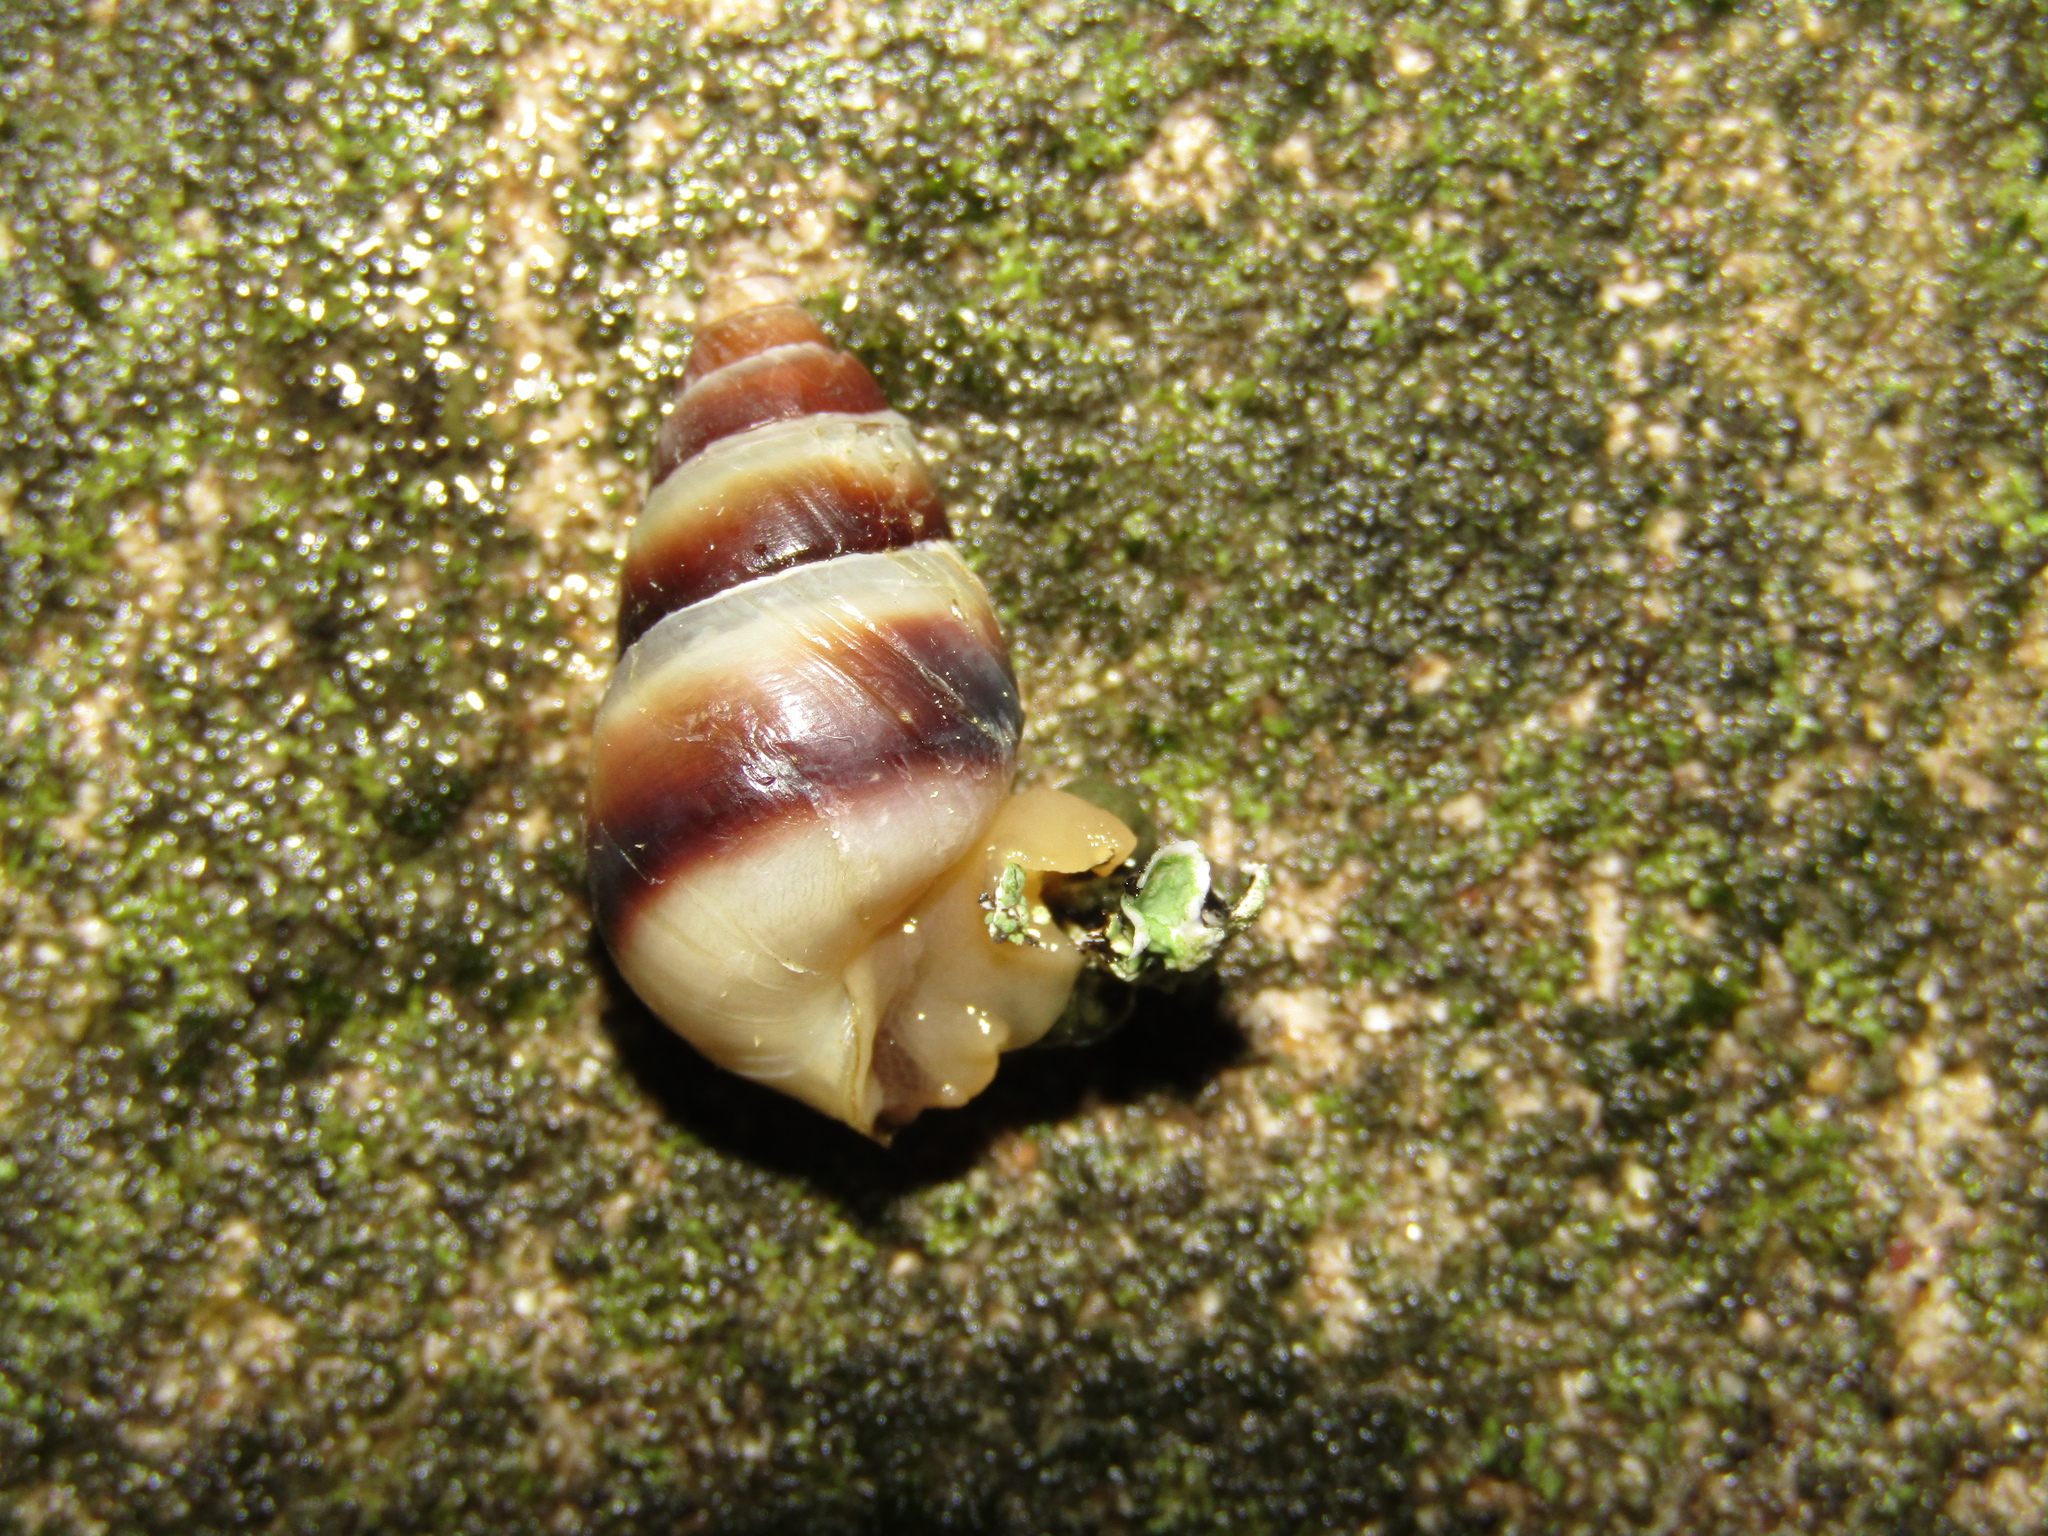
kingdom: Animalia
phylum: Mollusca
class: Gastropoda
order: Stylommatophora
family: Enidae
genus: Caucasicola
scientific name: Caucasicola raddei
